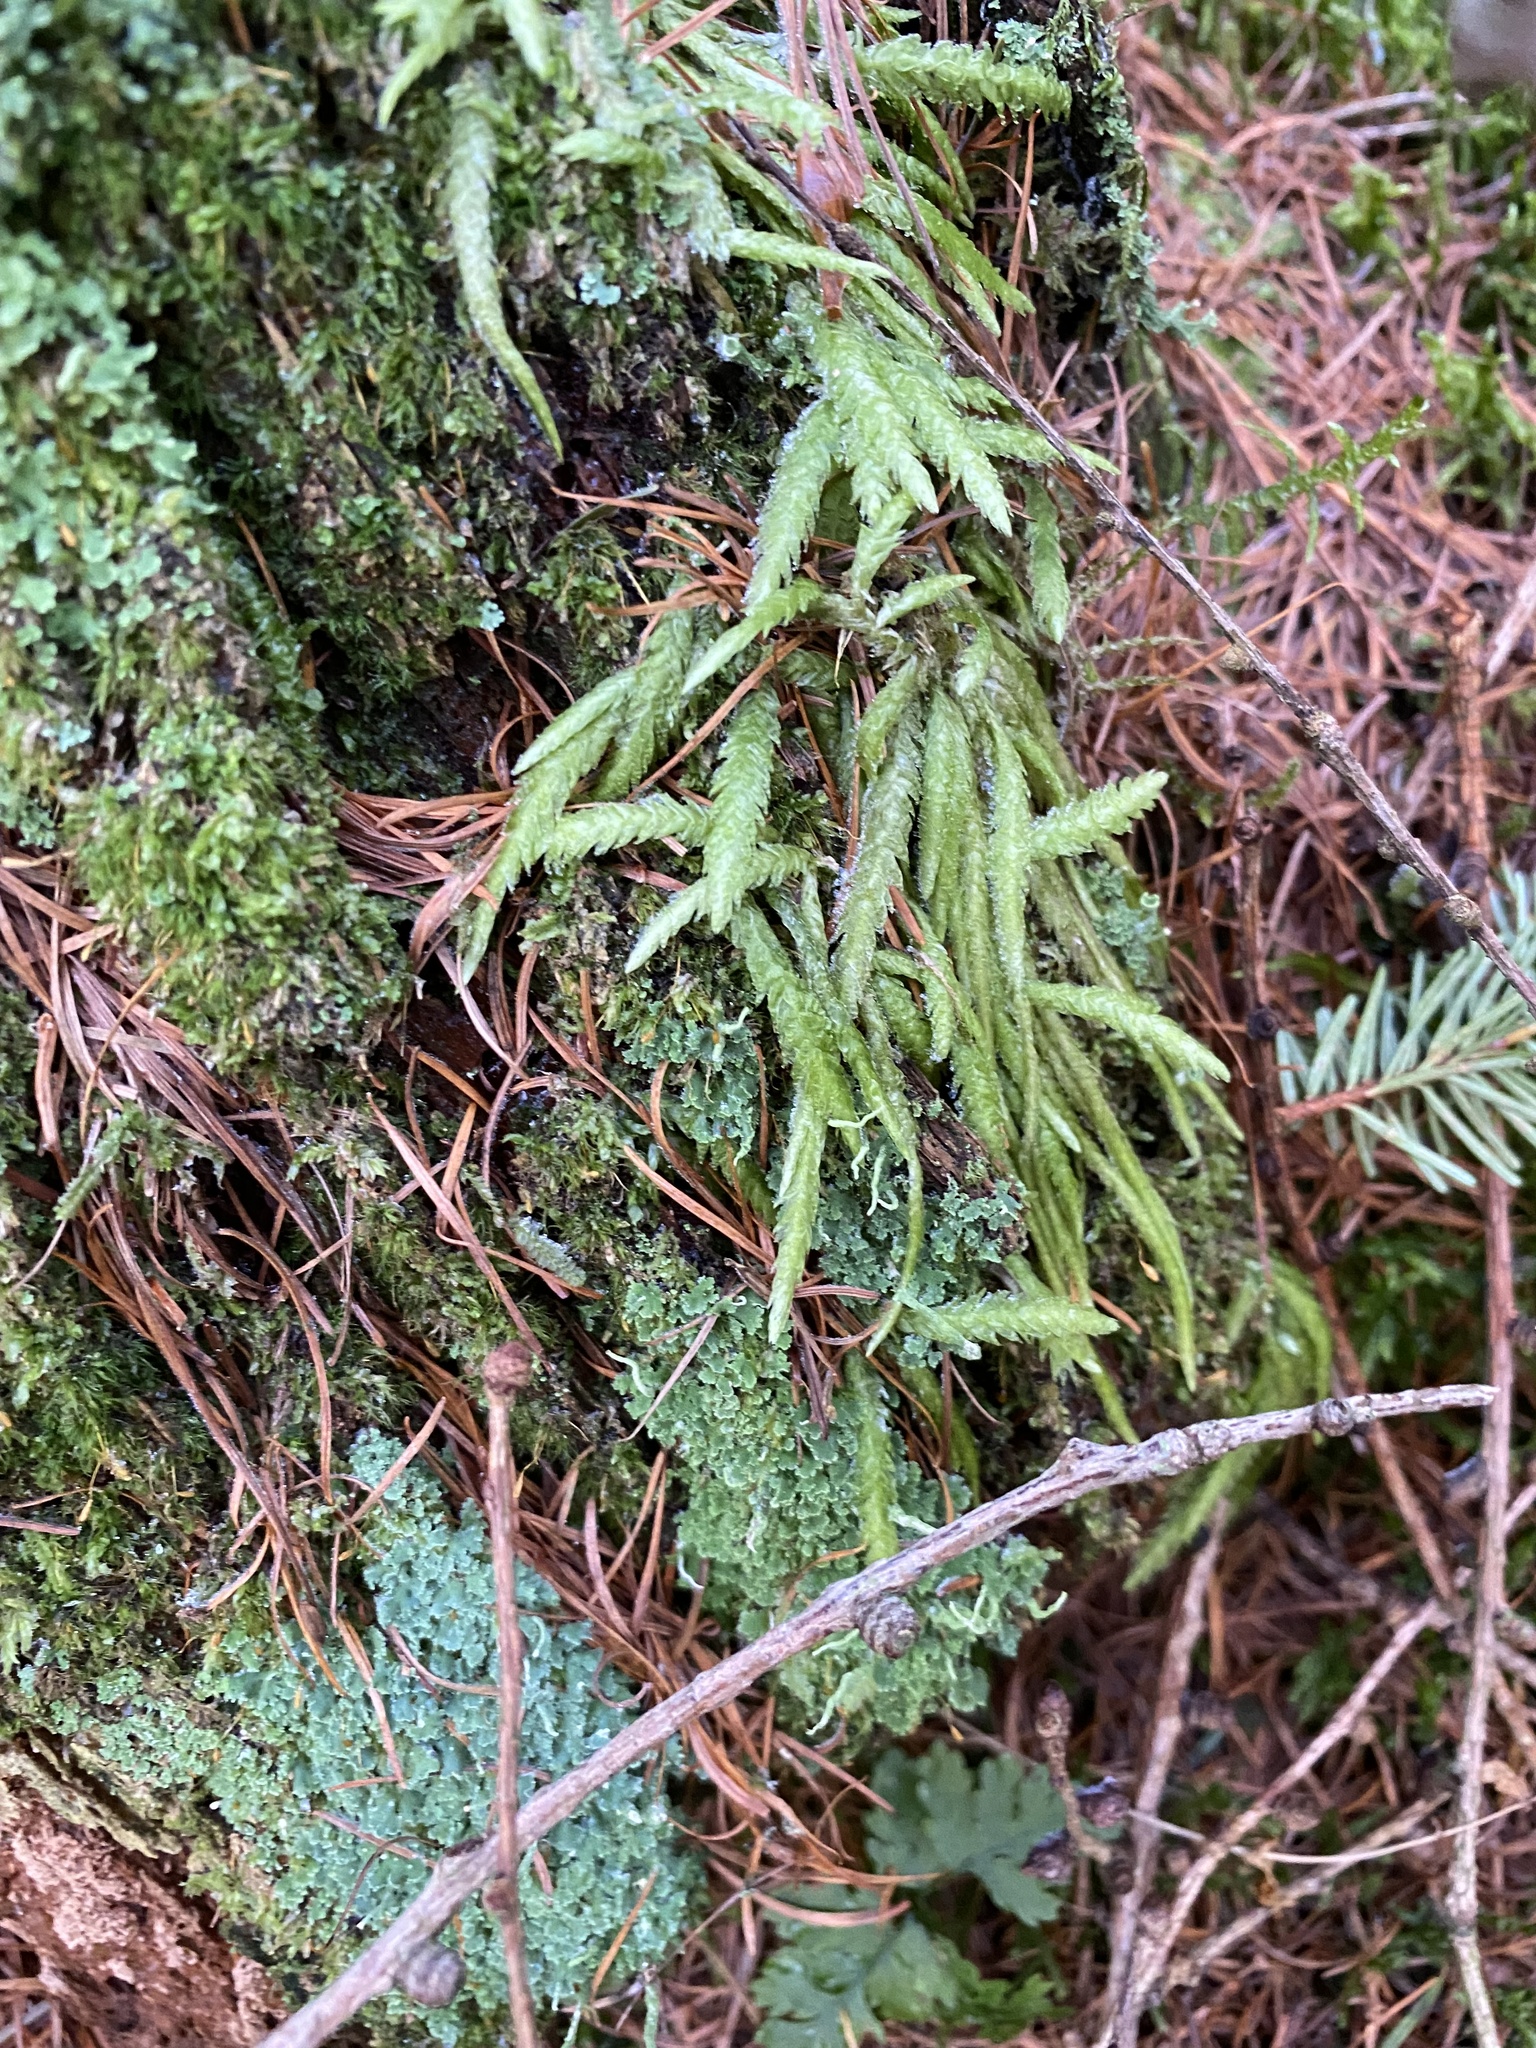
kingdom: Plantae
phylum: Bryophyta
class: Bryopsida
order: Hypnales
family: Plagiotheciaceae
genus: Plagiothecium
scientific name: Plagiothecium undulatum
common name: Waved silk-moss
